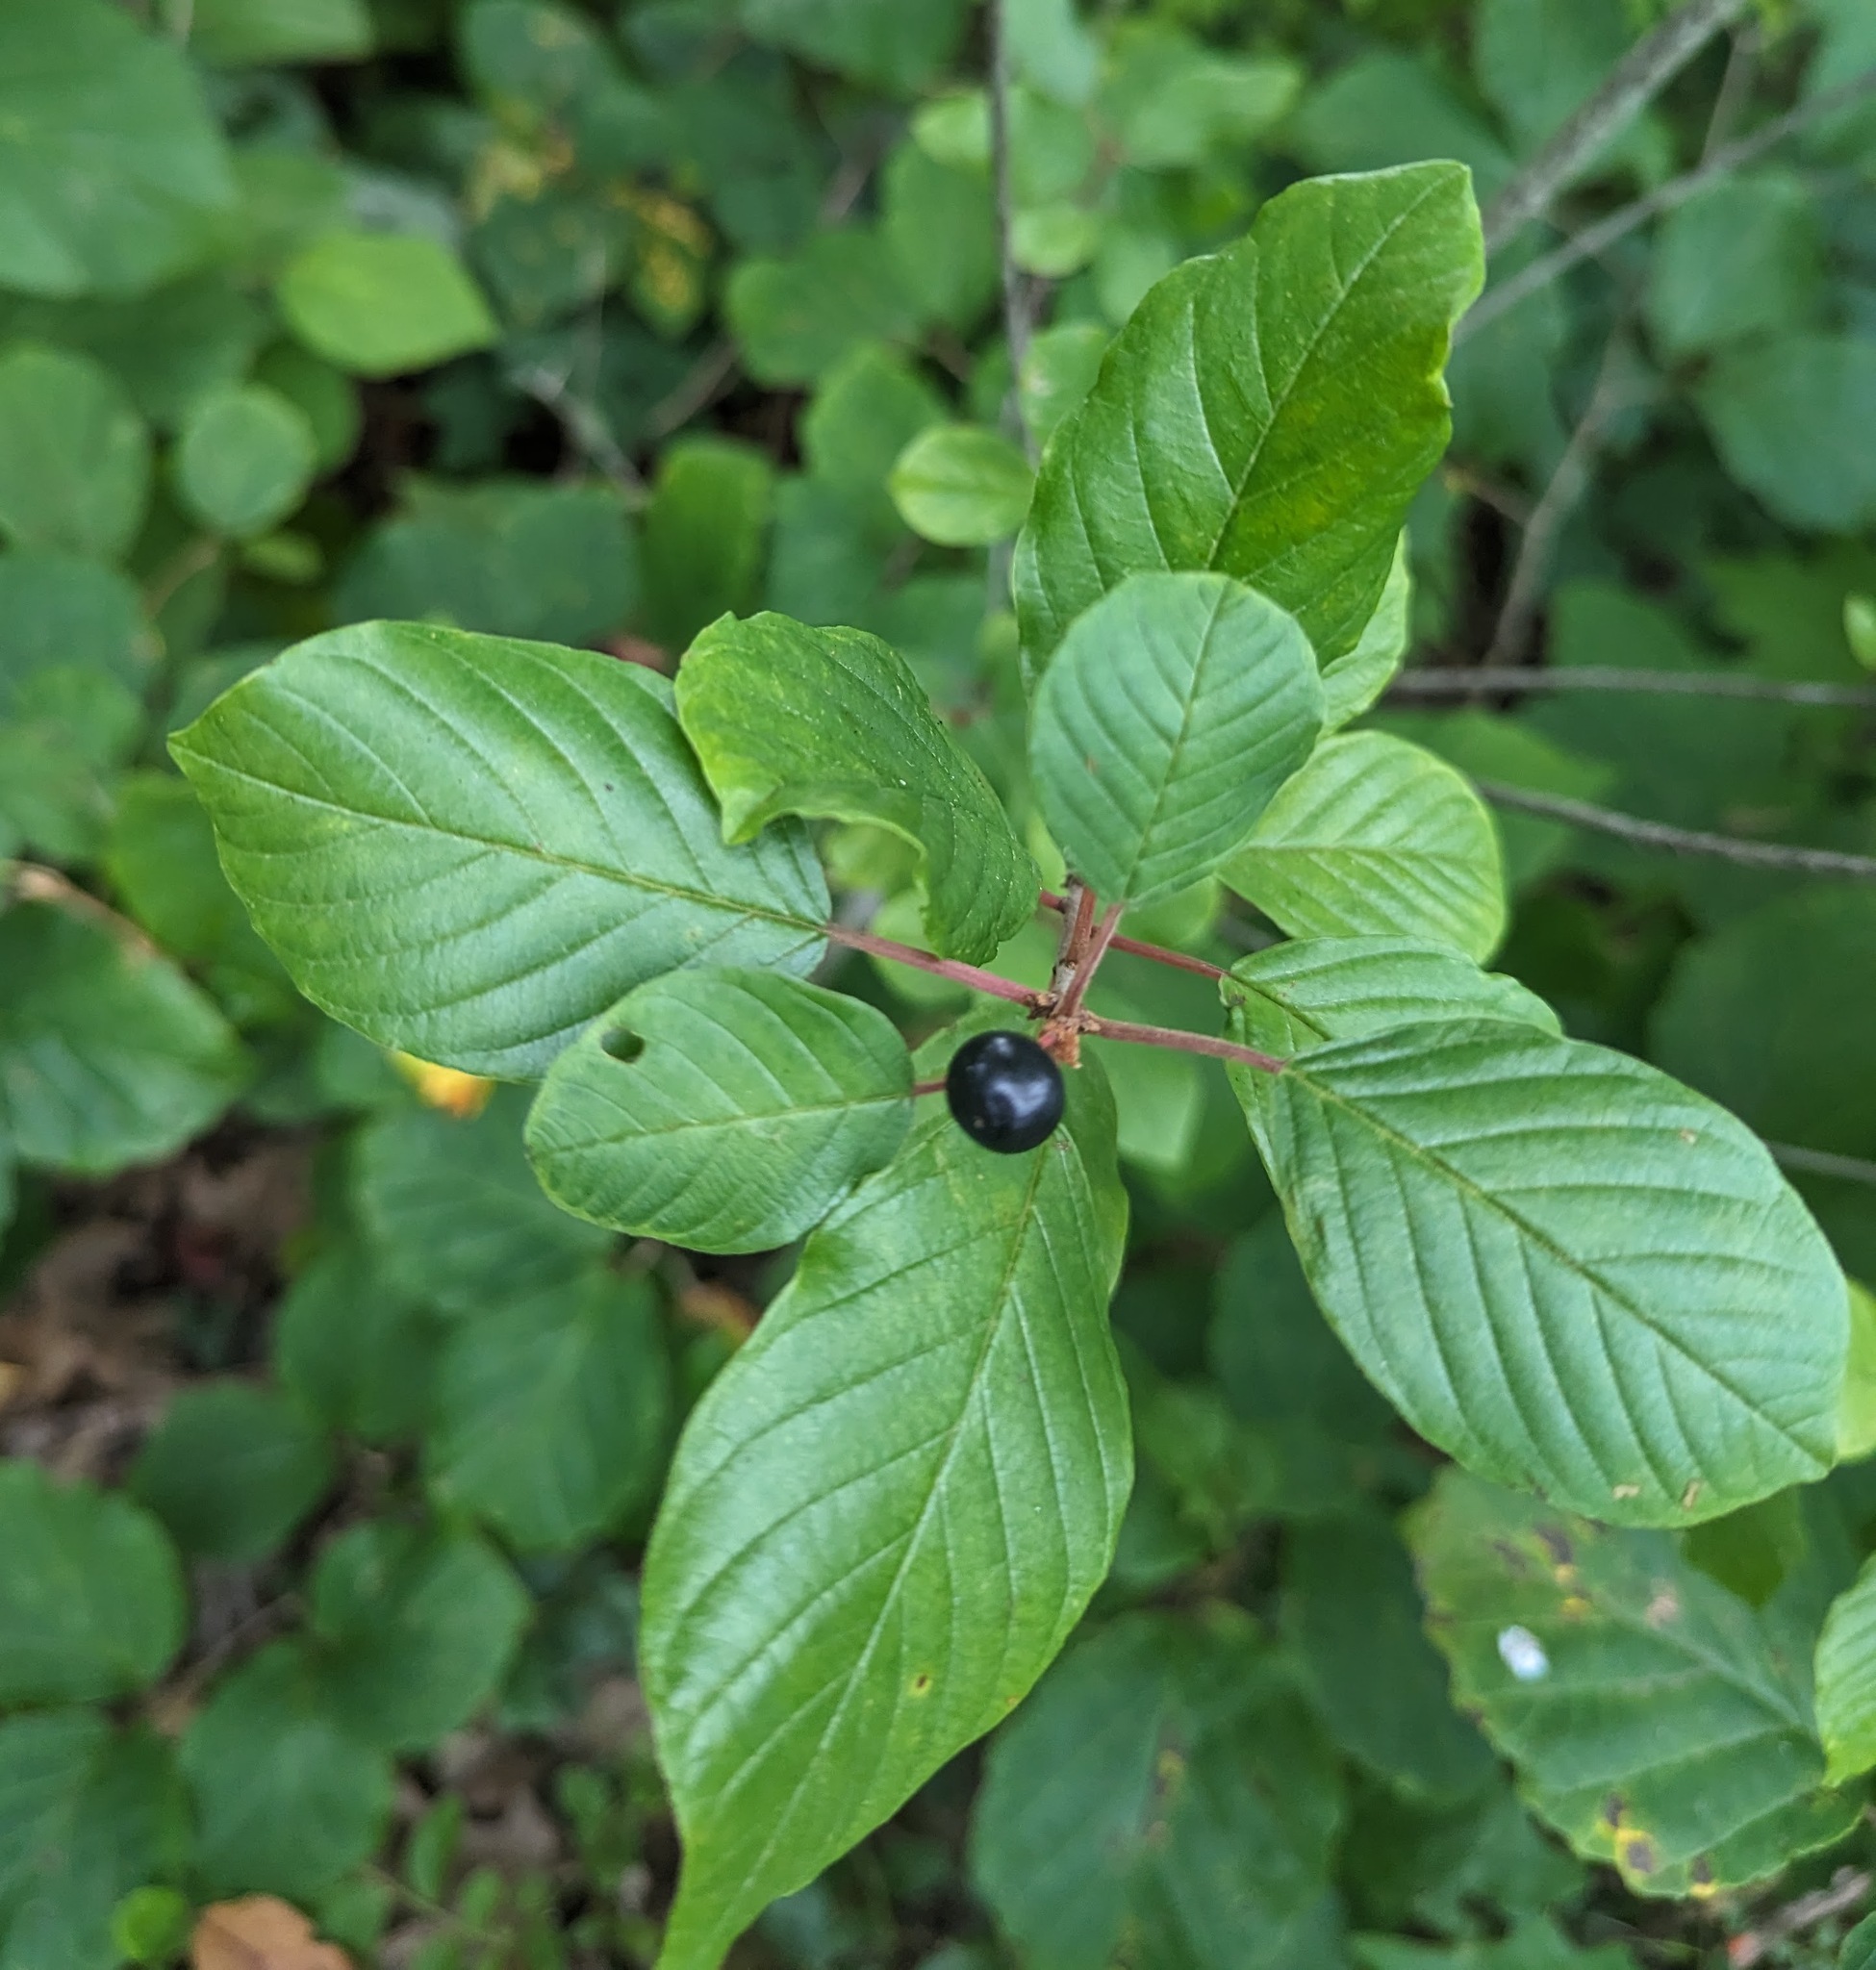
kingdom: Plantae
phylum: Tracheophyta
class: Magnoliopsida
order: Rosales
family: Rhamnaceae
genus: Frangula
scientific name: Frangula alnus
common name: Alder buckthorn
